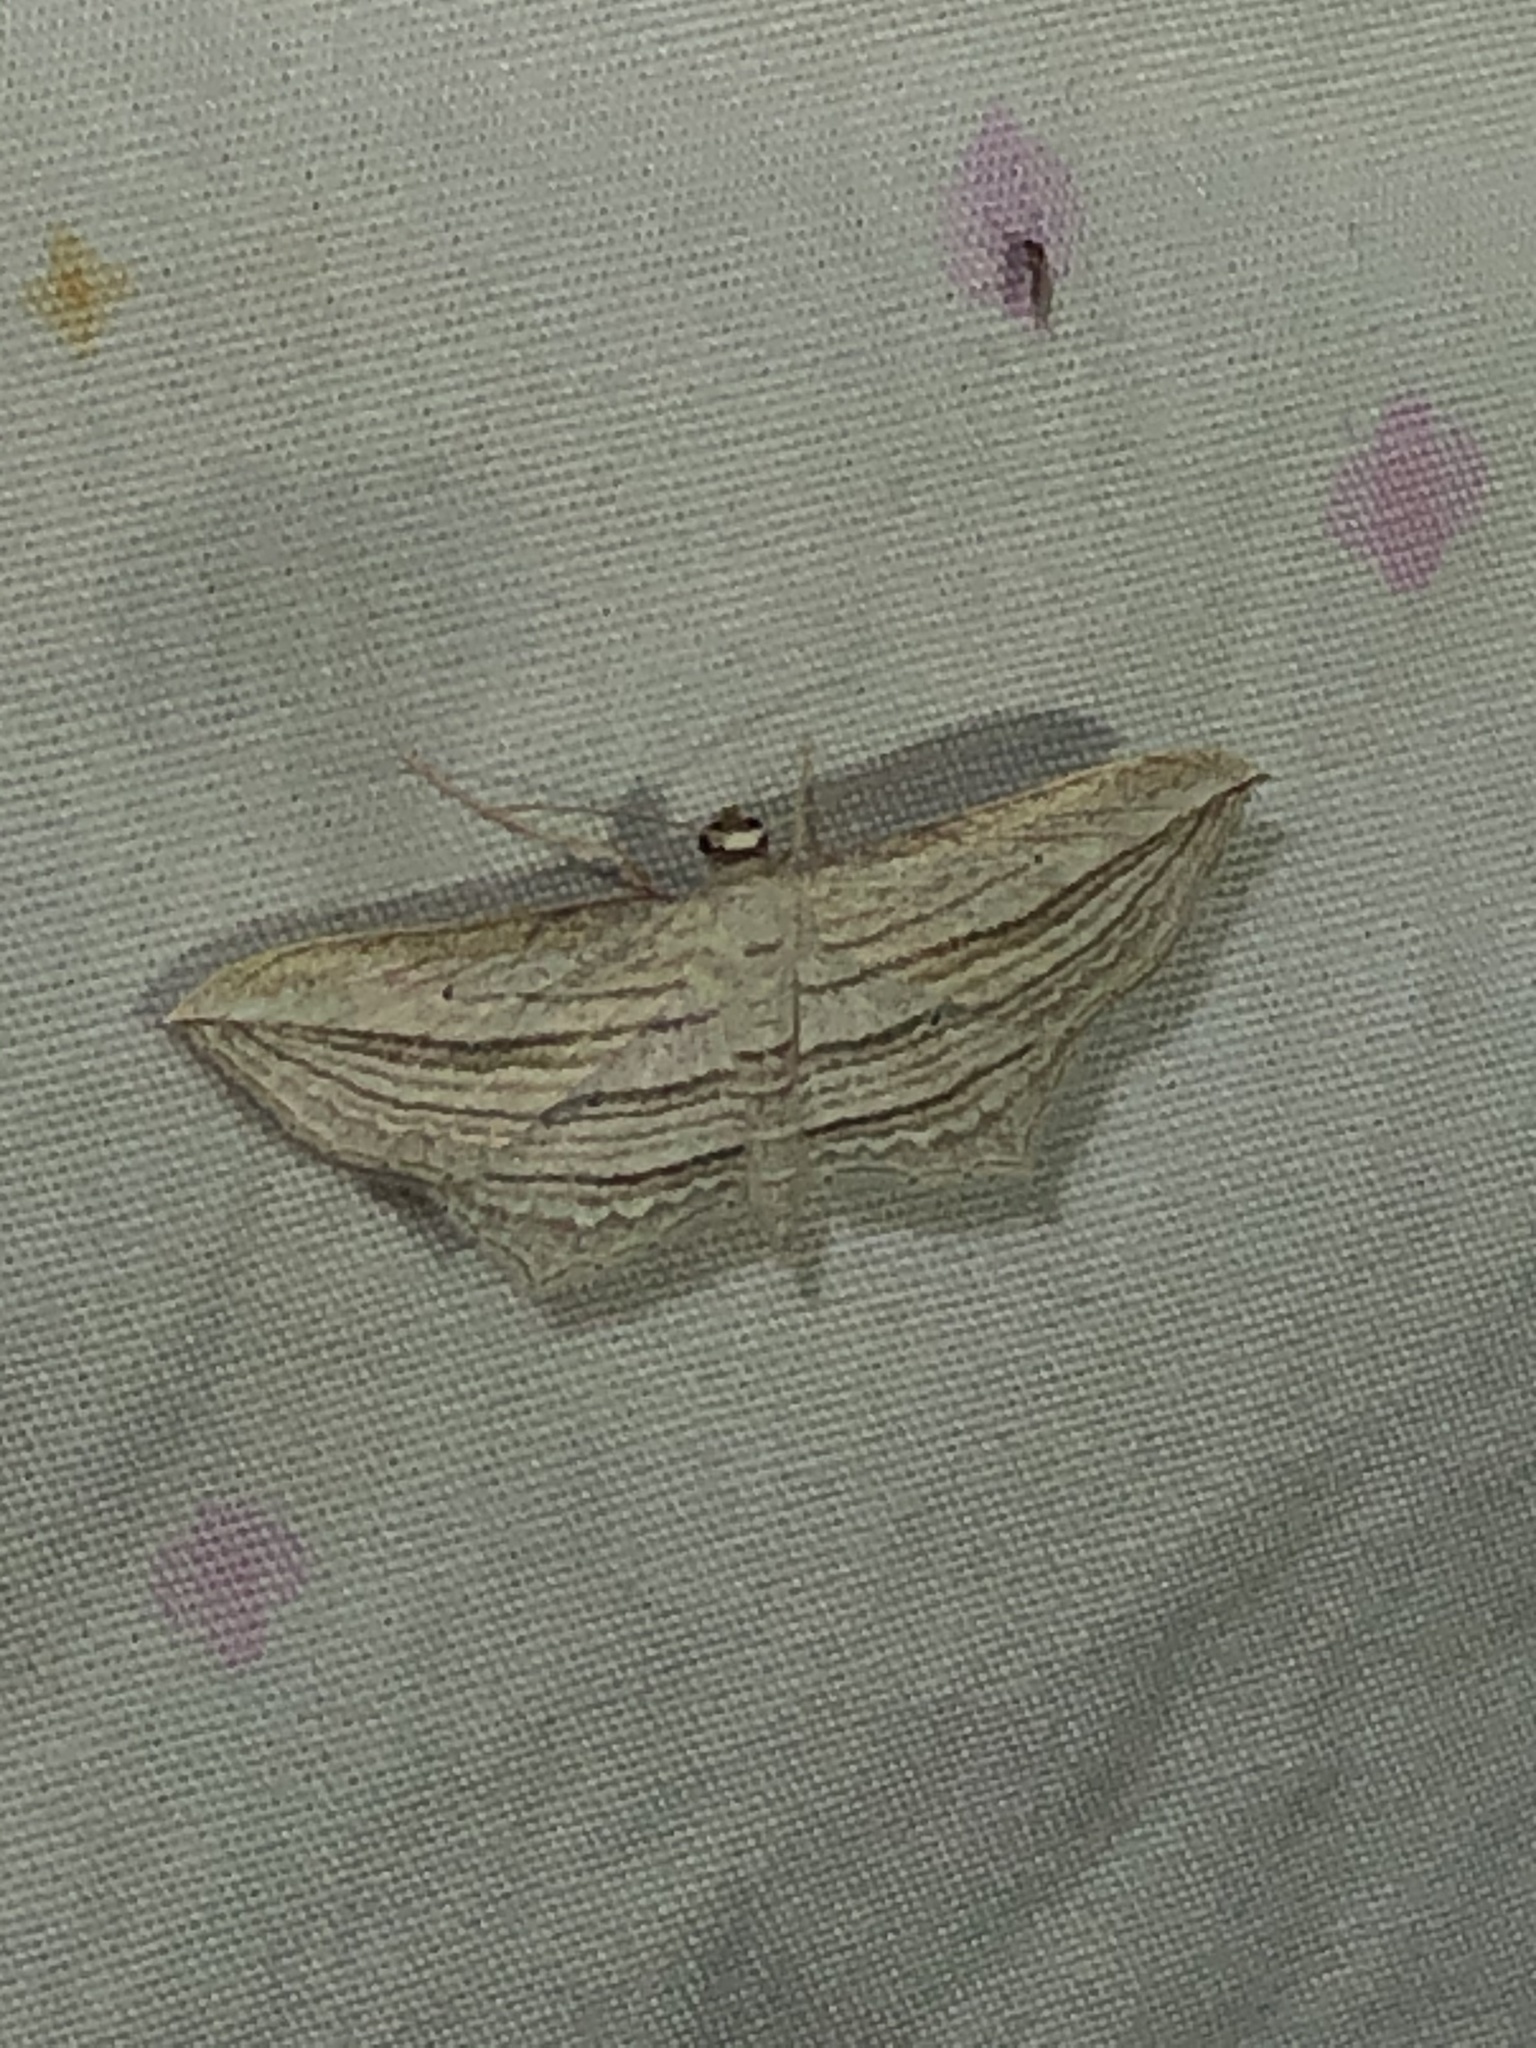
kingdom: Animalia
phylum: Arthropoda
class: Insecta
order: Lepidoptera
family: Geometridae
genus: Arcobara
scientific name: Arcobara multilineata
